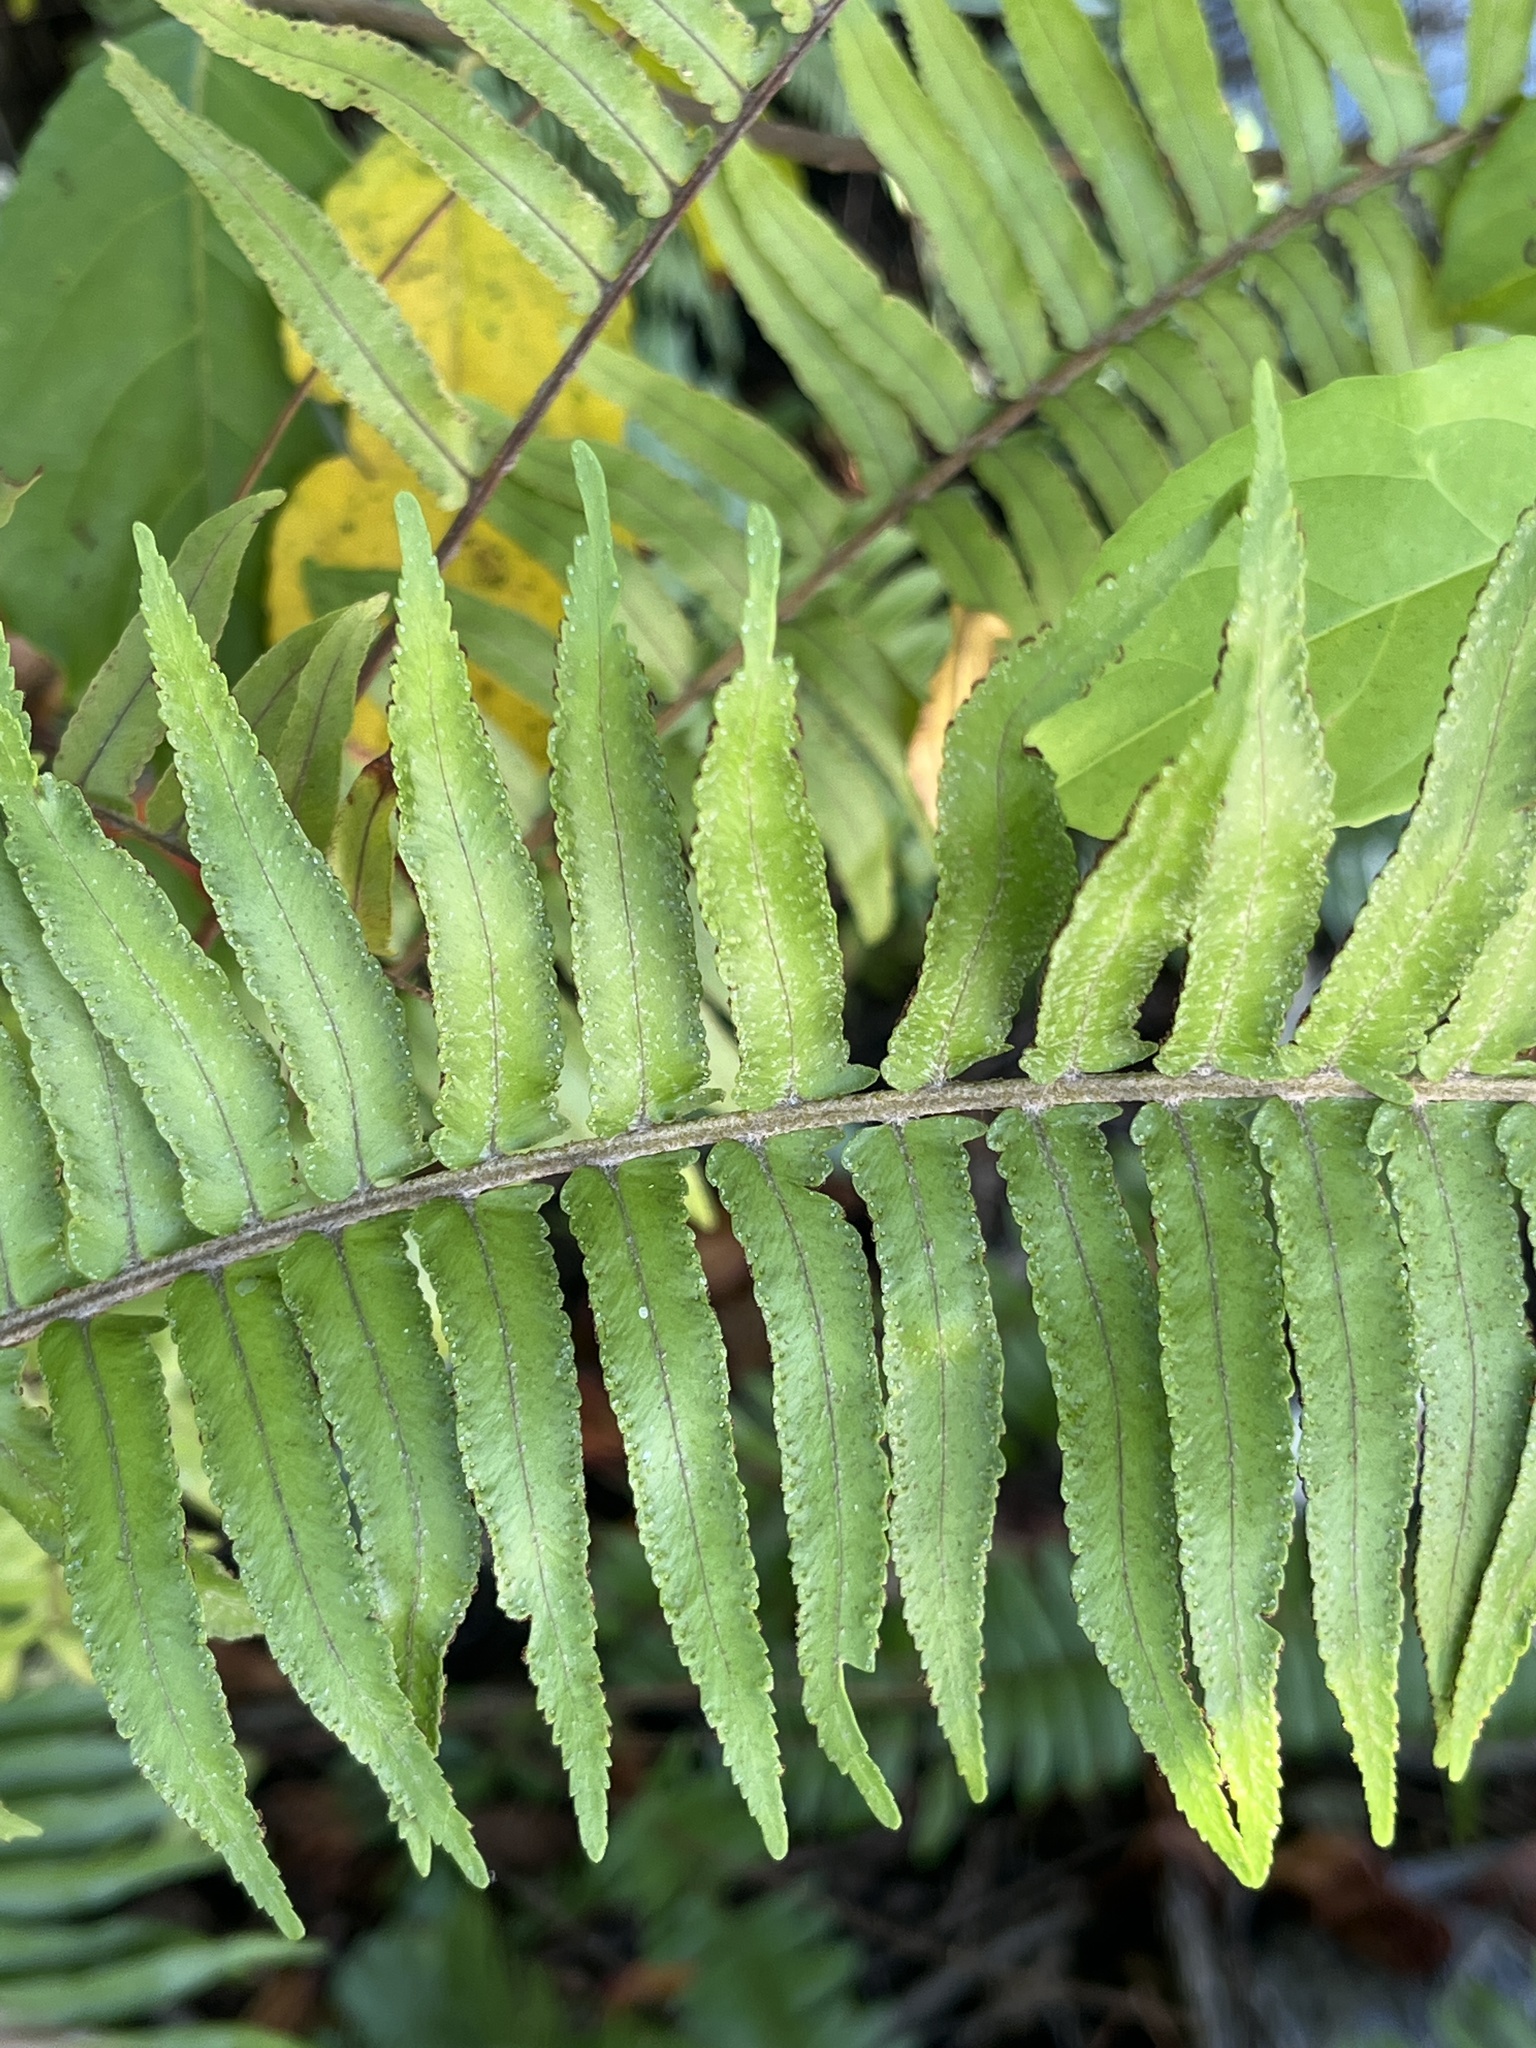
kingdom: Plantae
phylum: Tracheophyta
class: Polypodiopsida
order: Polypodiales
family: Nephrolepidaceae
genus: Nephrolepis
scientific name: Nephrolepis brownii
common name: Asian swordfern
